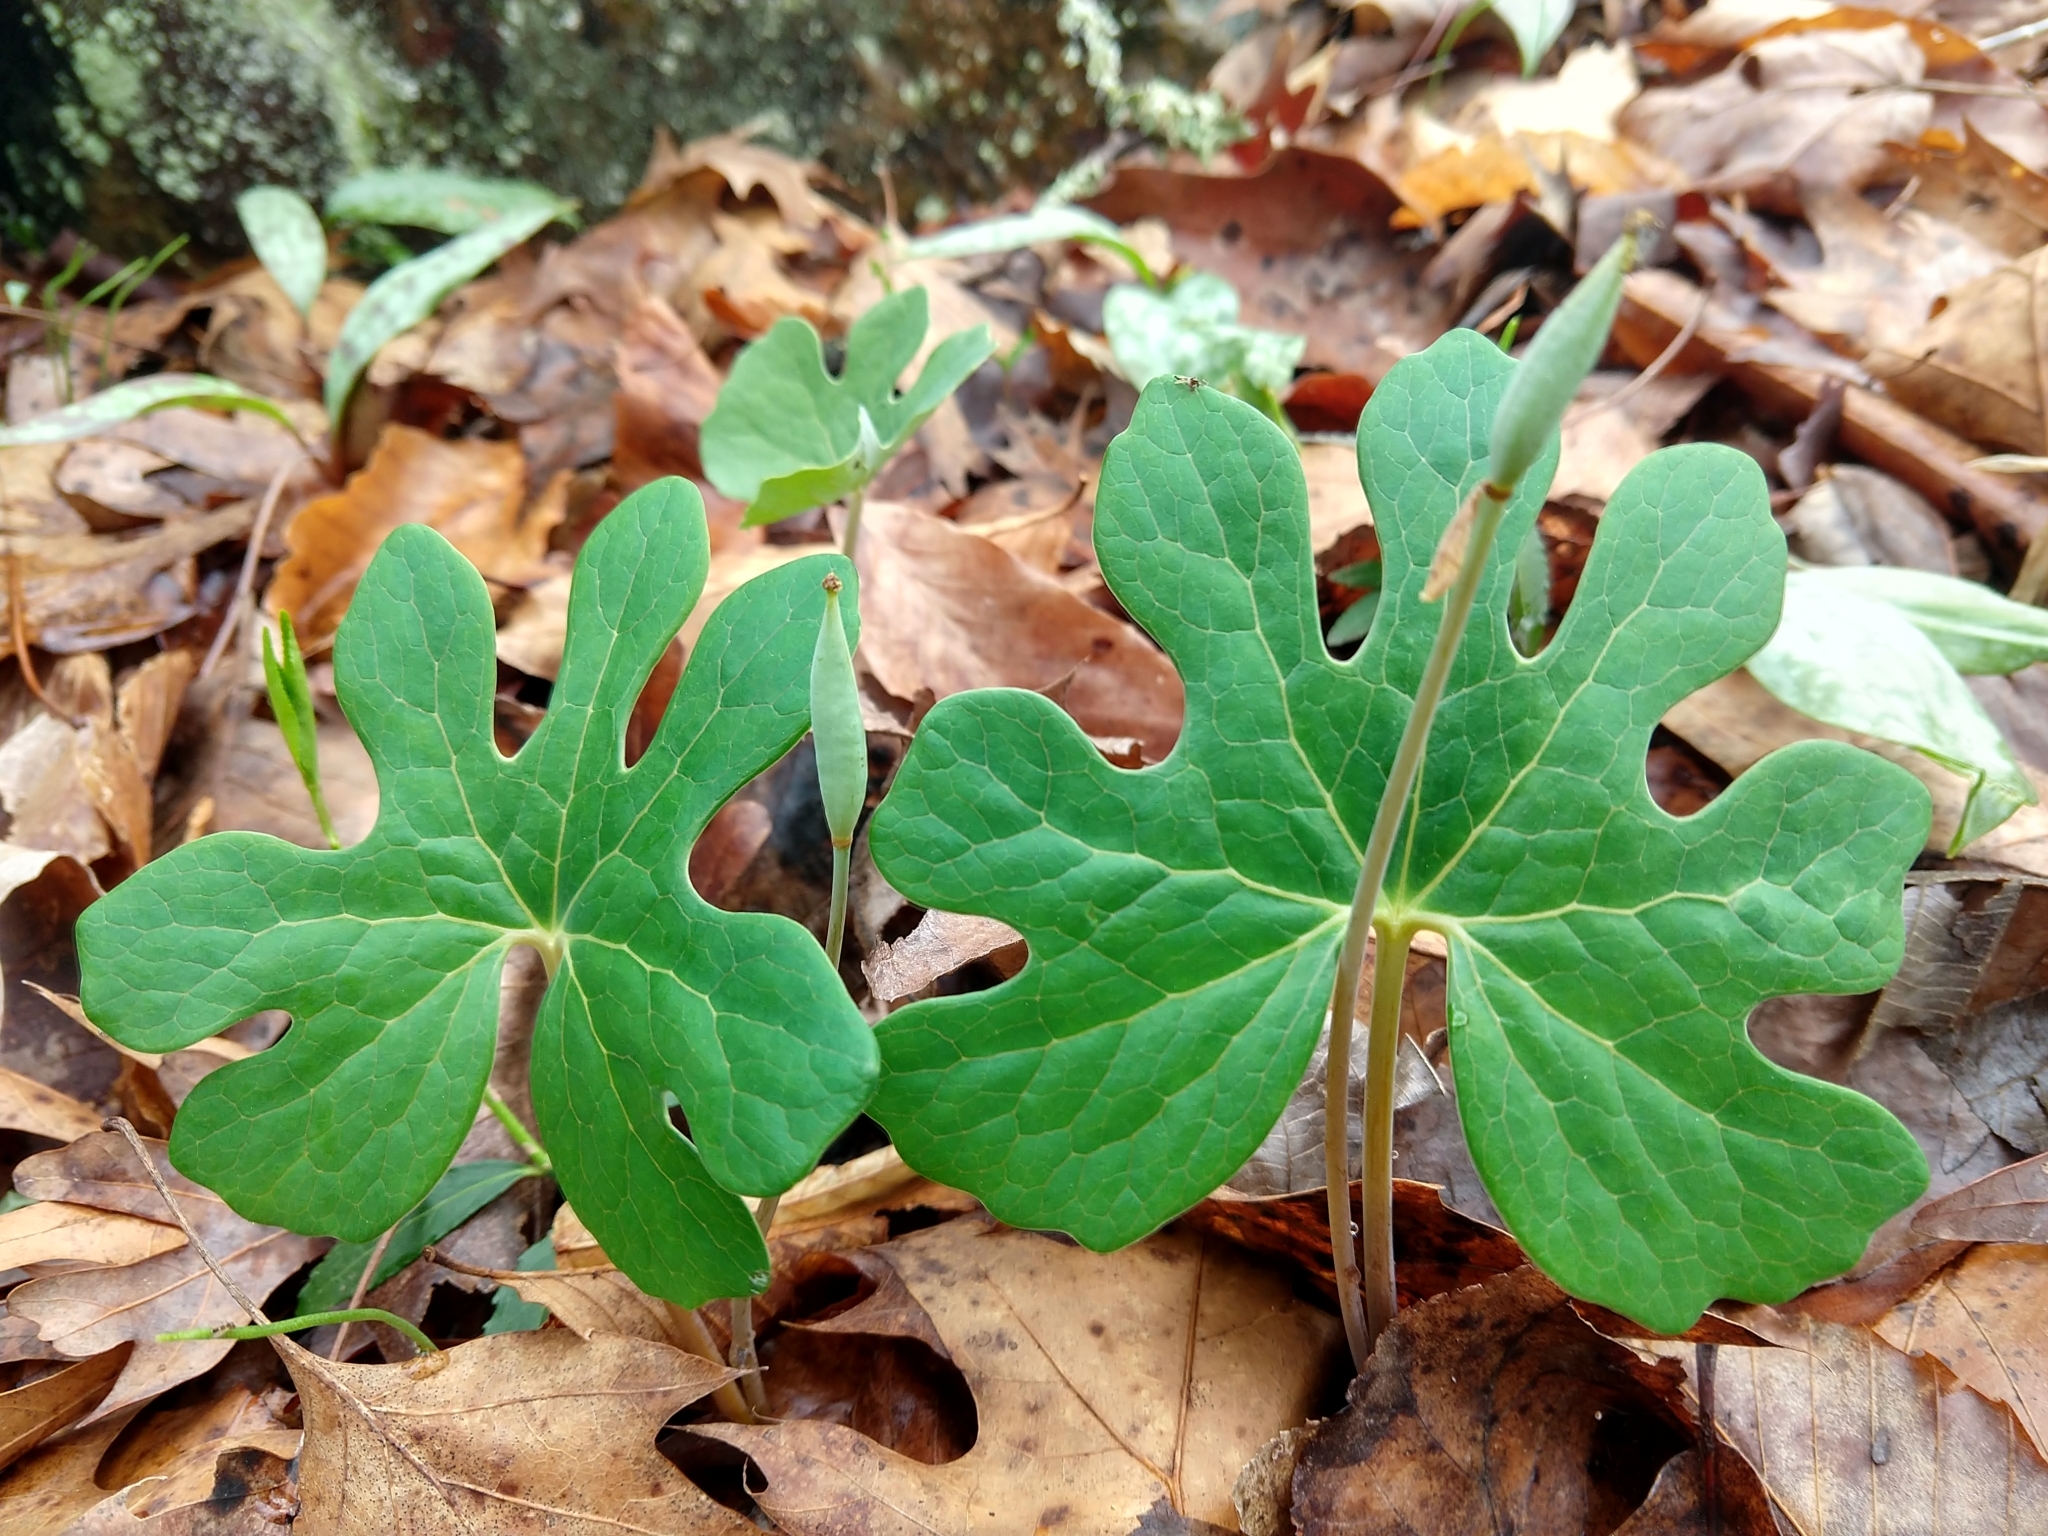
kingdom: Plantae
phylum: Tracheophyta
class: Magnoliopsida
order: Ranunculales
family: Papaveraceae
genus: Sanguinaria
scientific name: Sanguinaria canadensis
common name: Bloodroot
